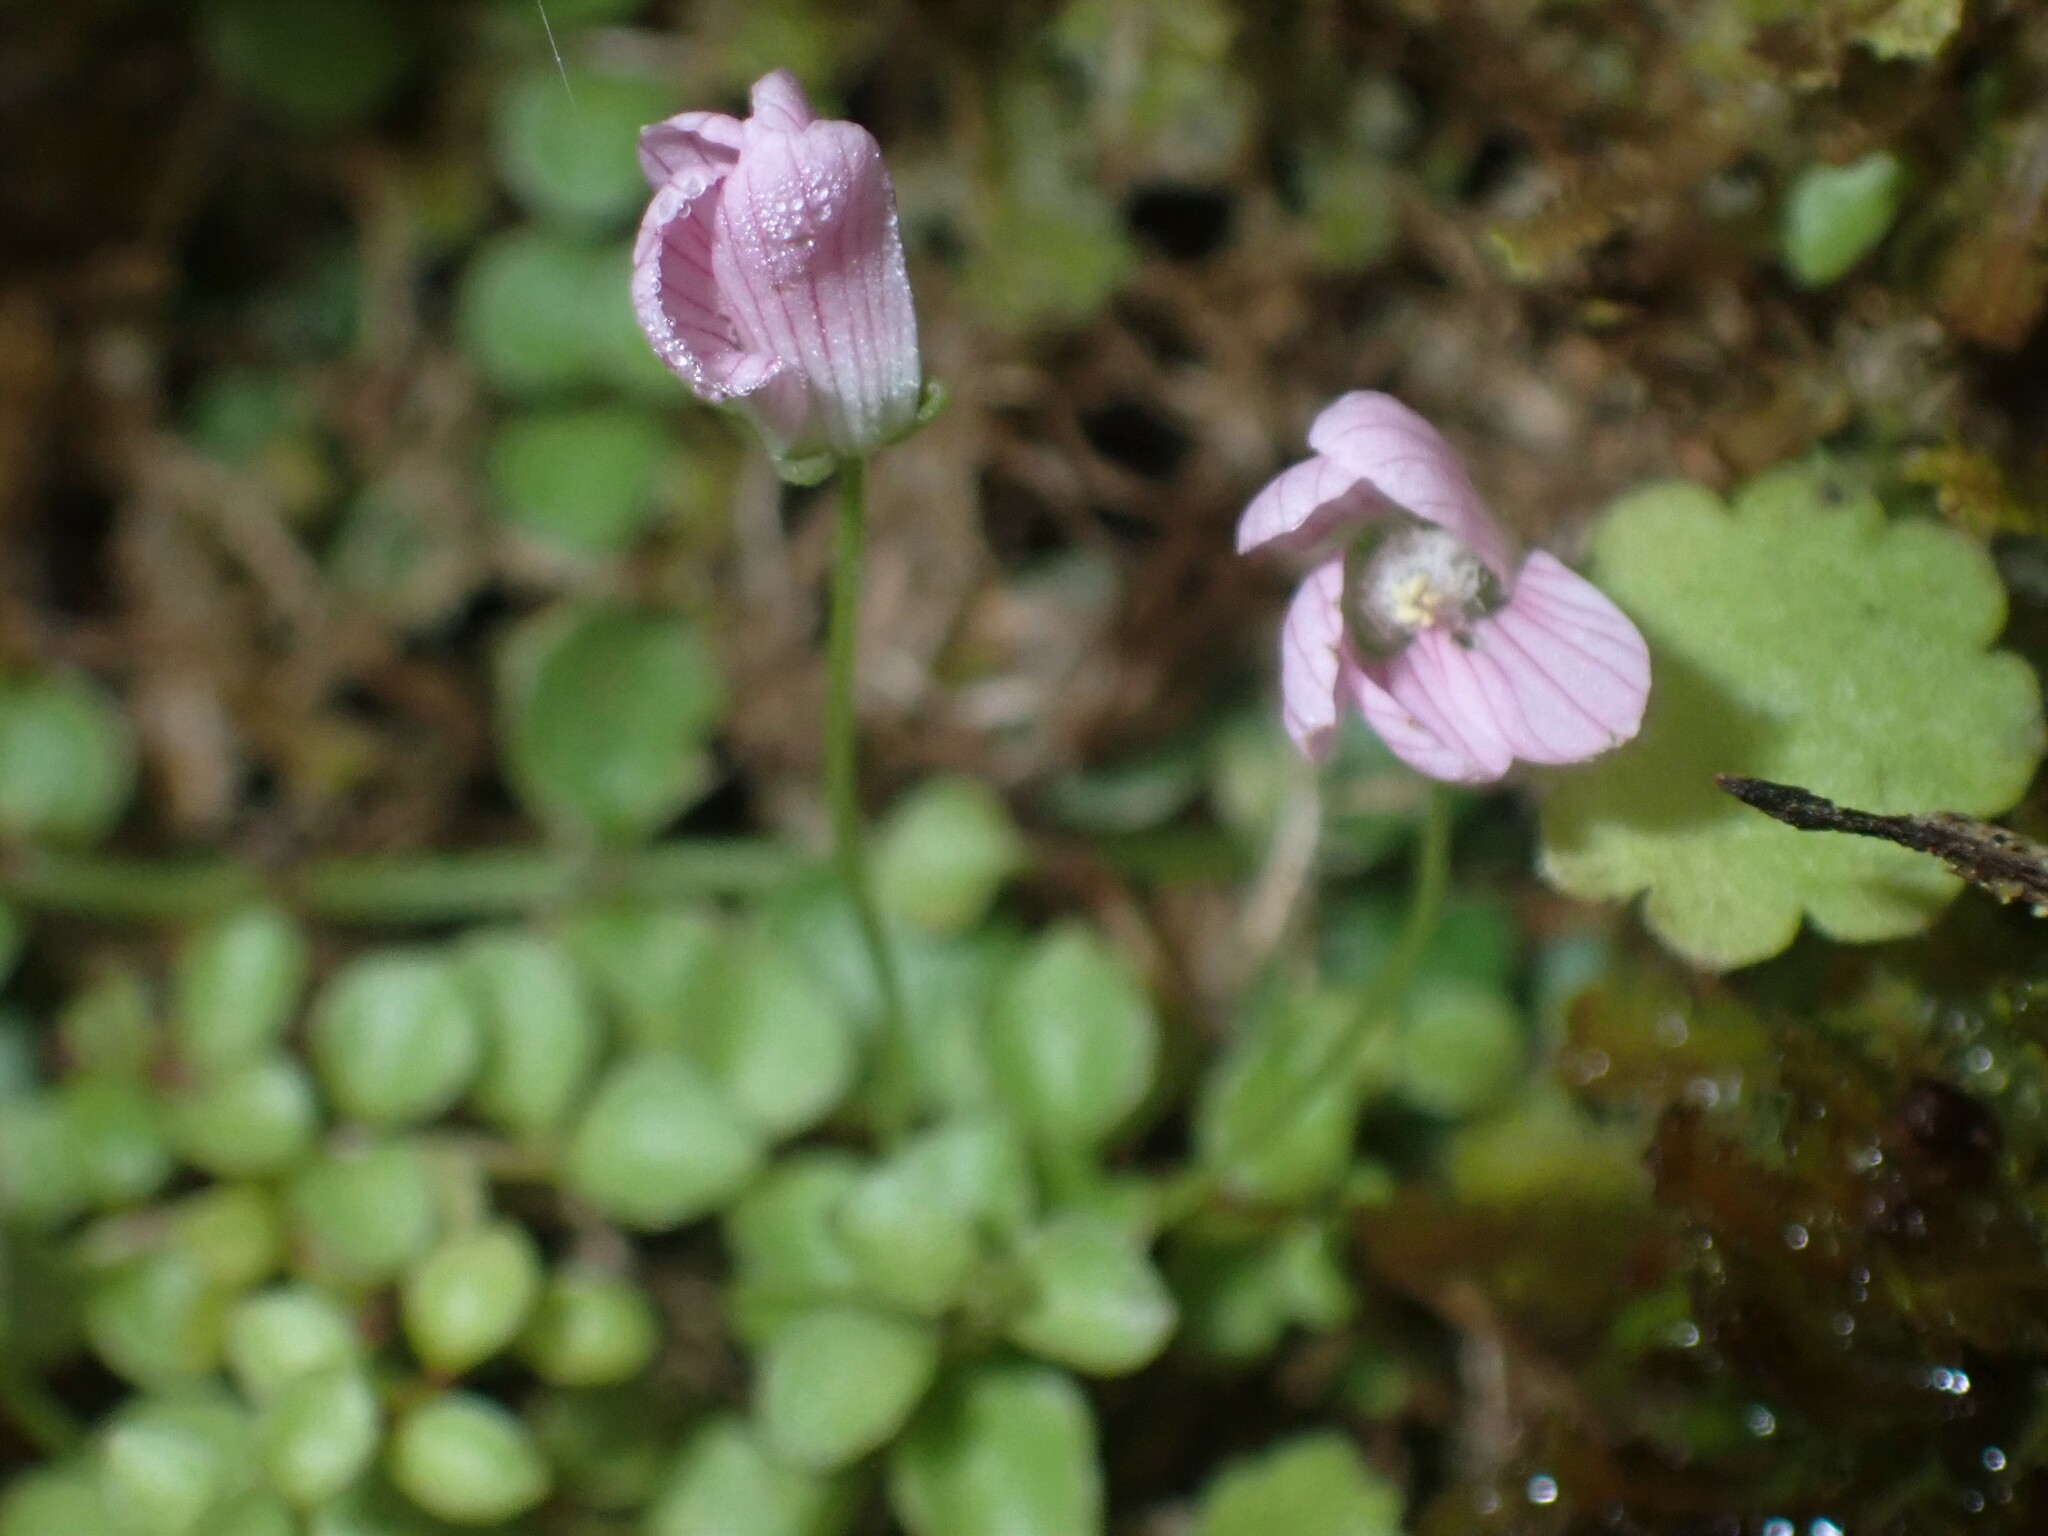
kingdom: Plantae
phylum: Tracheophyta
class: Magnoliopsida
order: Ericales
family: Primulaceae
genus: Lysimachia
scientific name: Lysimachia tenella
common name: European bog pimpernel
